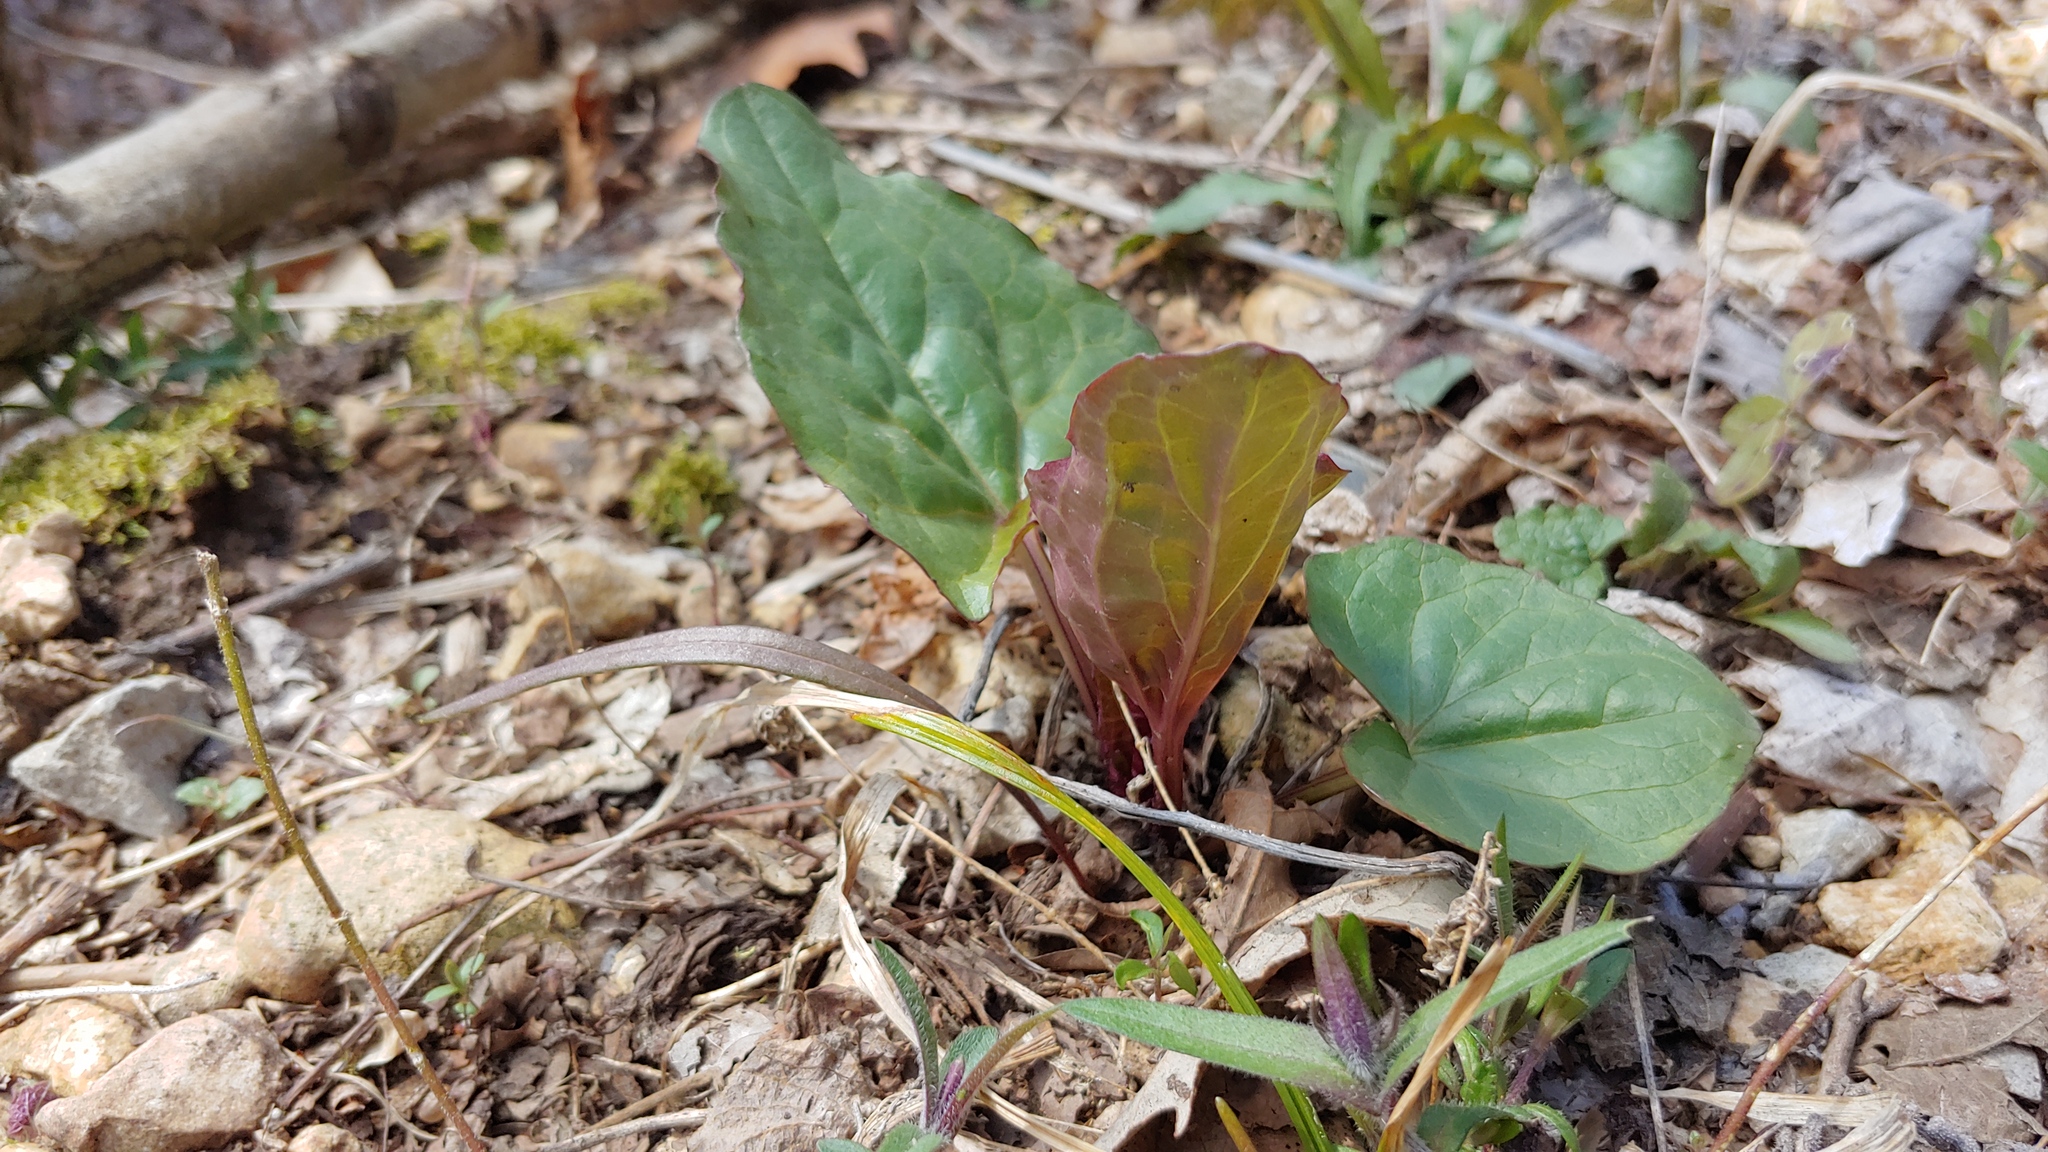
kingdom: Plantae
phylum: Tracheophyta
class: Magnoliopsida
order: Asterales
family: Asteraceae
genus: Arnoglossum
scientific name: Arnoglossum atriplicifolium
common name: Pale indian-plantain
